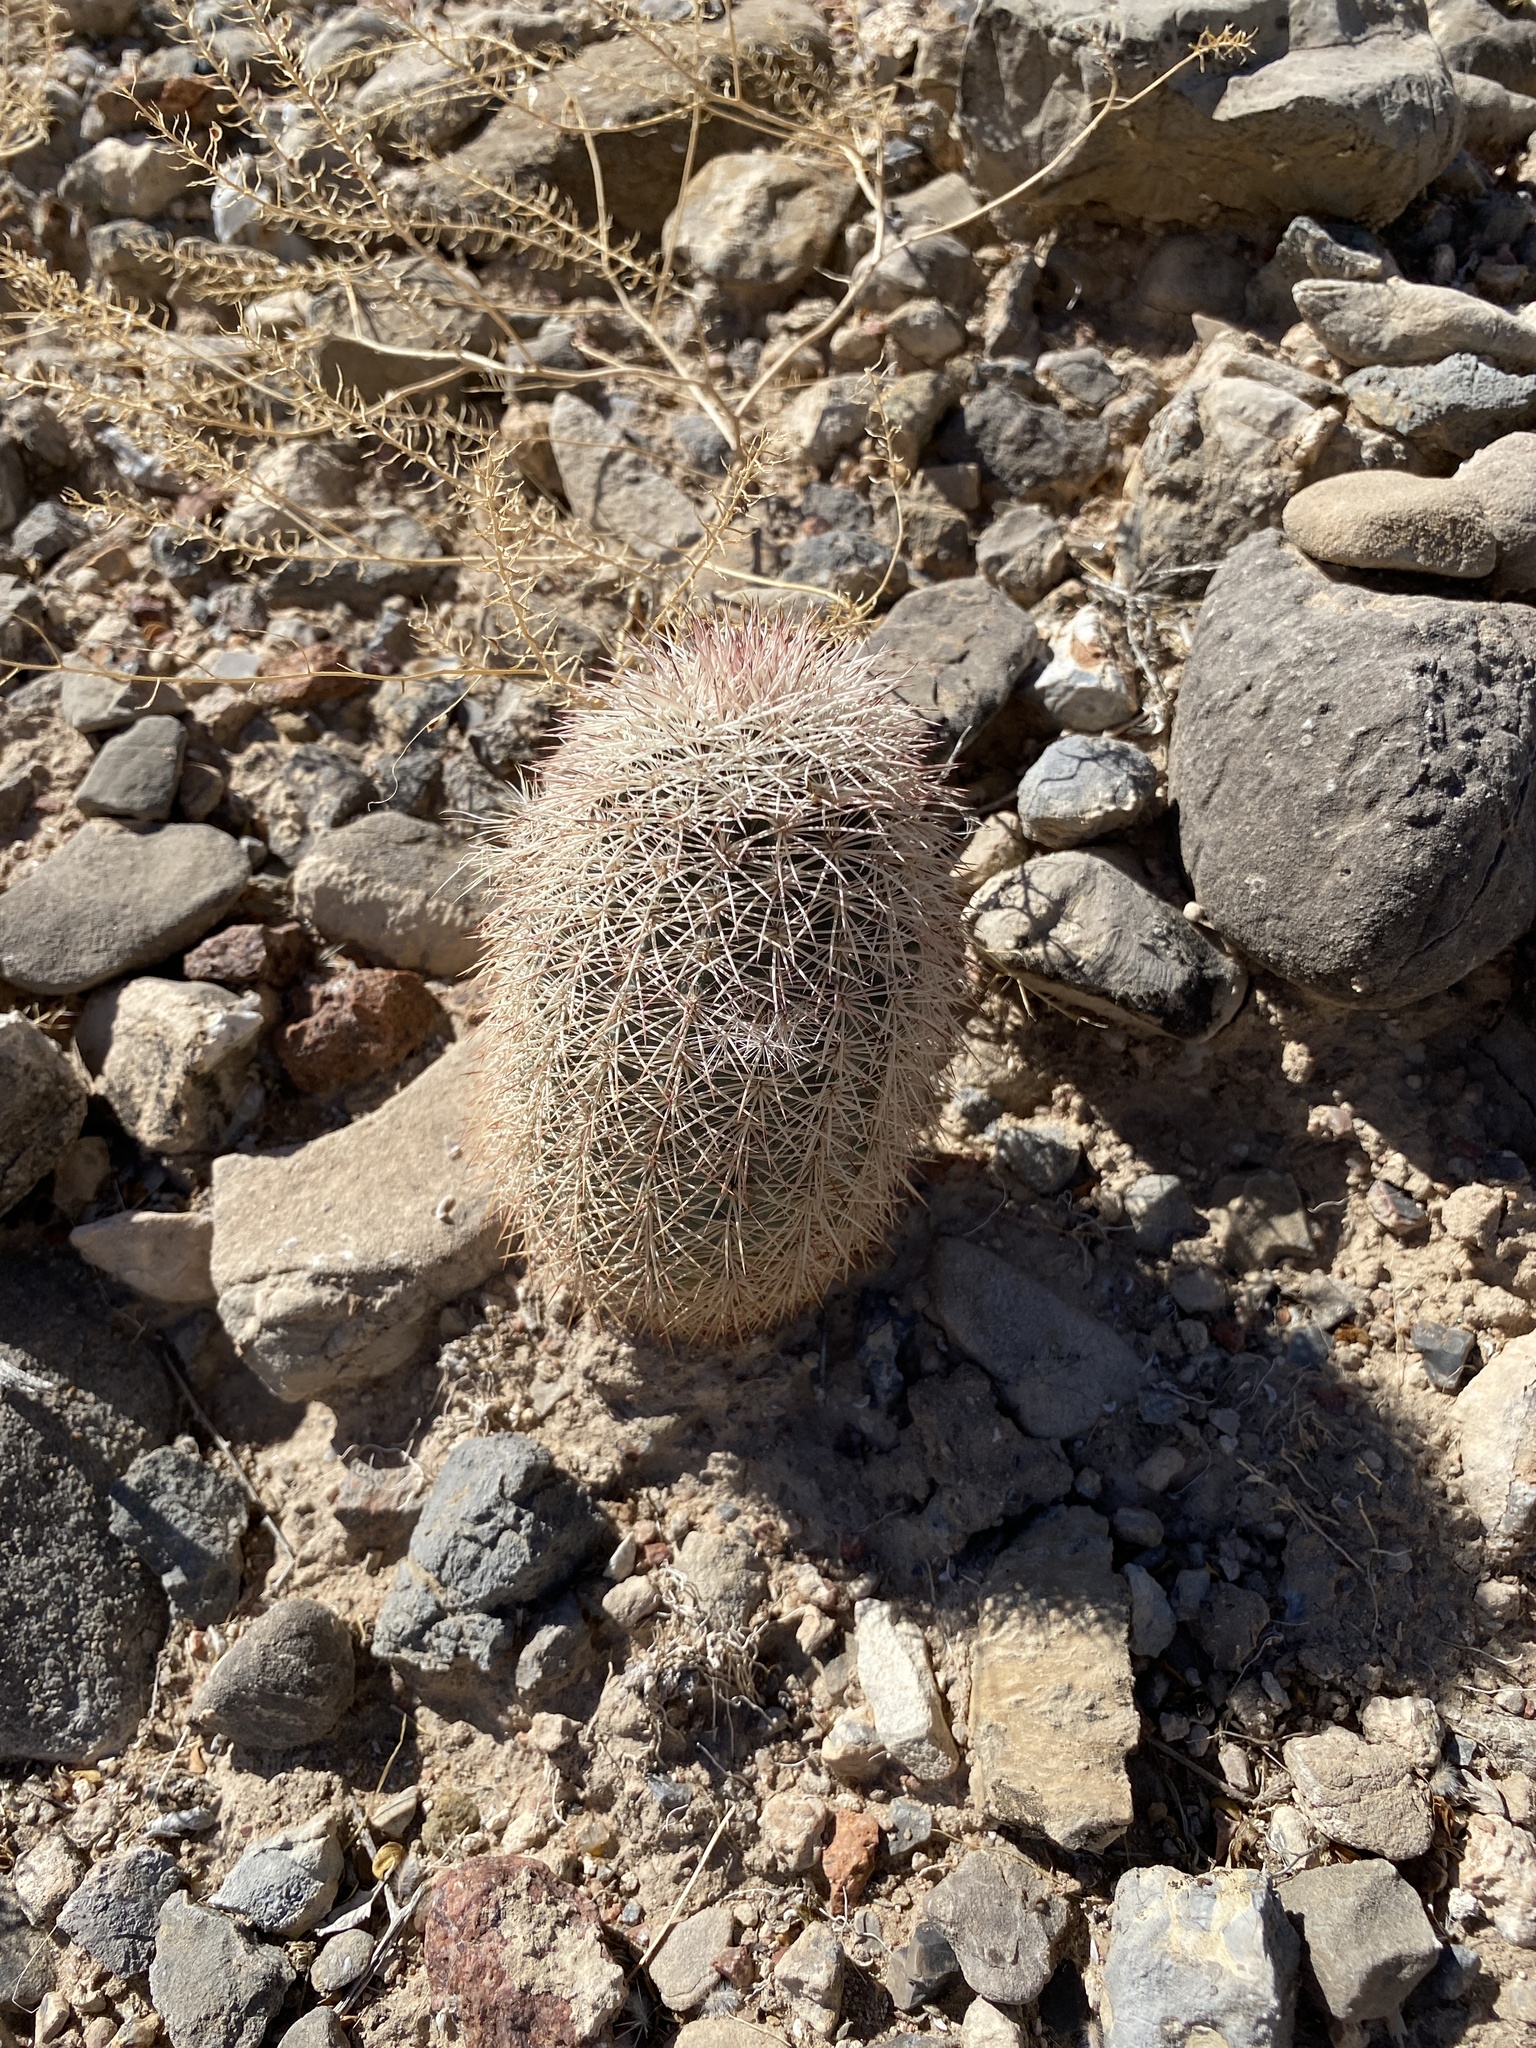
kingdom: Plantae
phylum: Tracheophyta
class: Magnoliopsida
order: Caryophyllales
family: Cactaceae
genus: Echinocereus
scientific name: Echinocereus dasyacanthus
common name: Spiny hedgehog cactus
